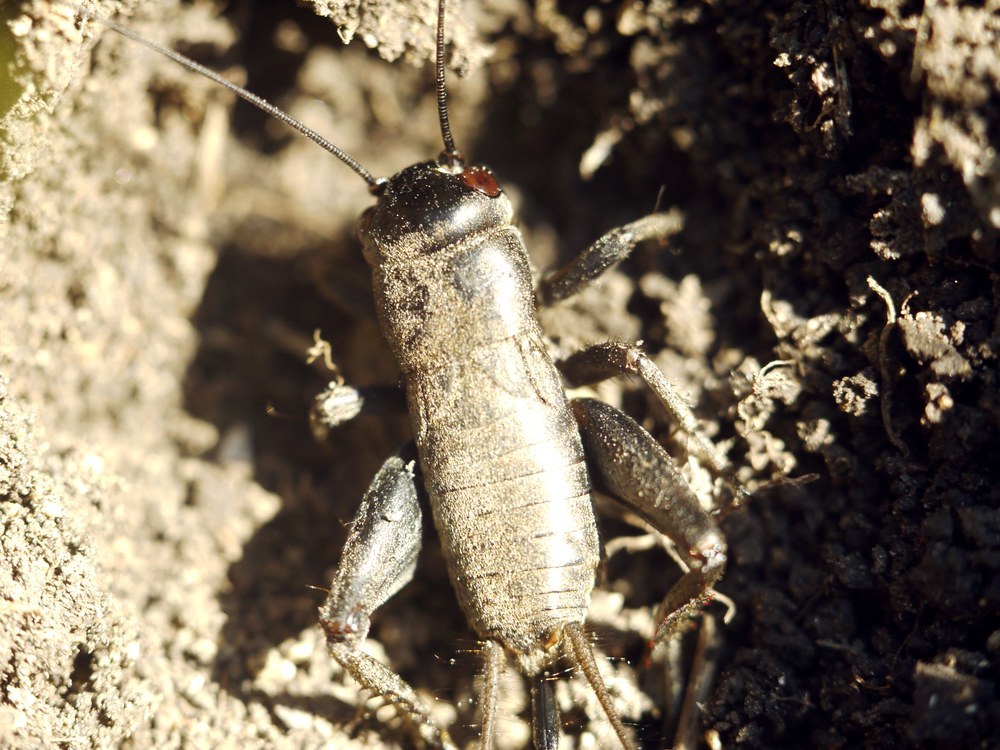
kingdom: Animalia
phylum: Arthropoda
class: Insecta
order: Orthoptera
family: Gryllidae
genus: Melanogryllus
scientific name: Melanogryllus desertus
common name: Desert cricket
